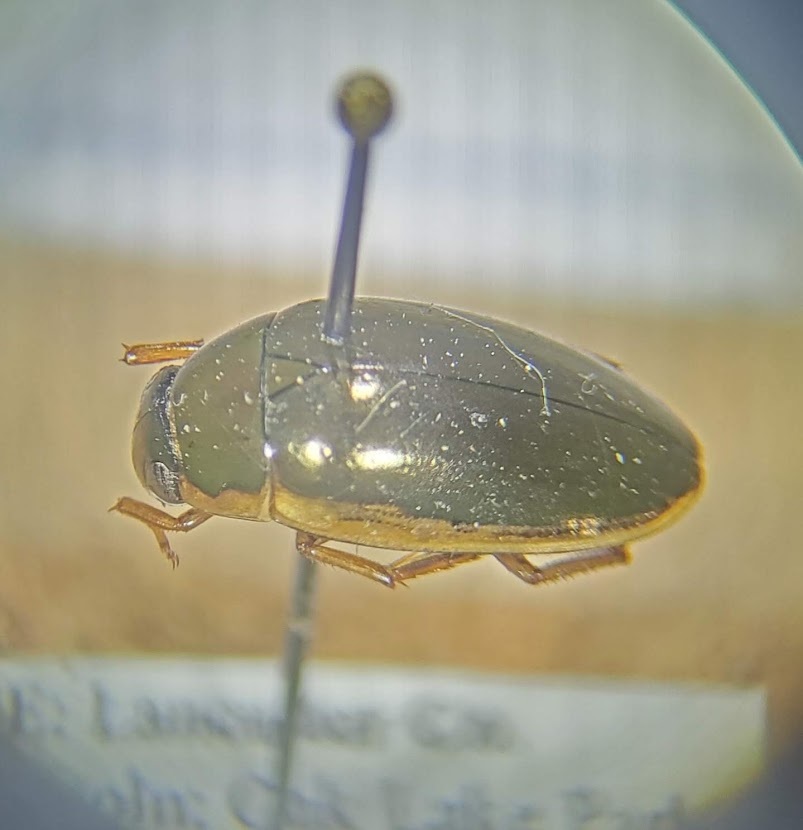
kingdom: Animalia
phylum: Arthropoda
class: Insecta
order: Coleoptera
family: Hydrophilidae
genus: Tropisternus
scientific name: Tropisternus lateralis
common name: Lateral-banded water scavenger beetle
